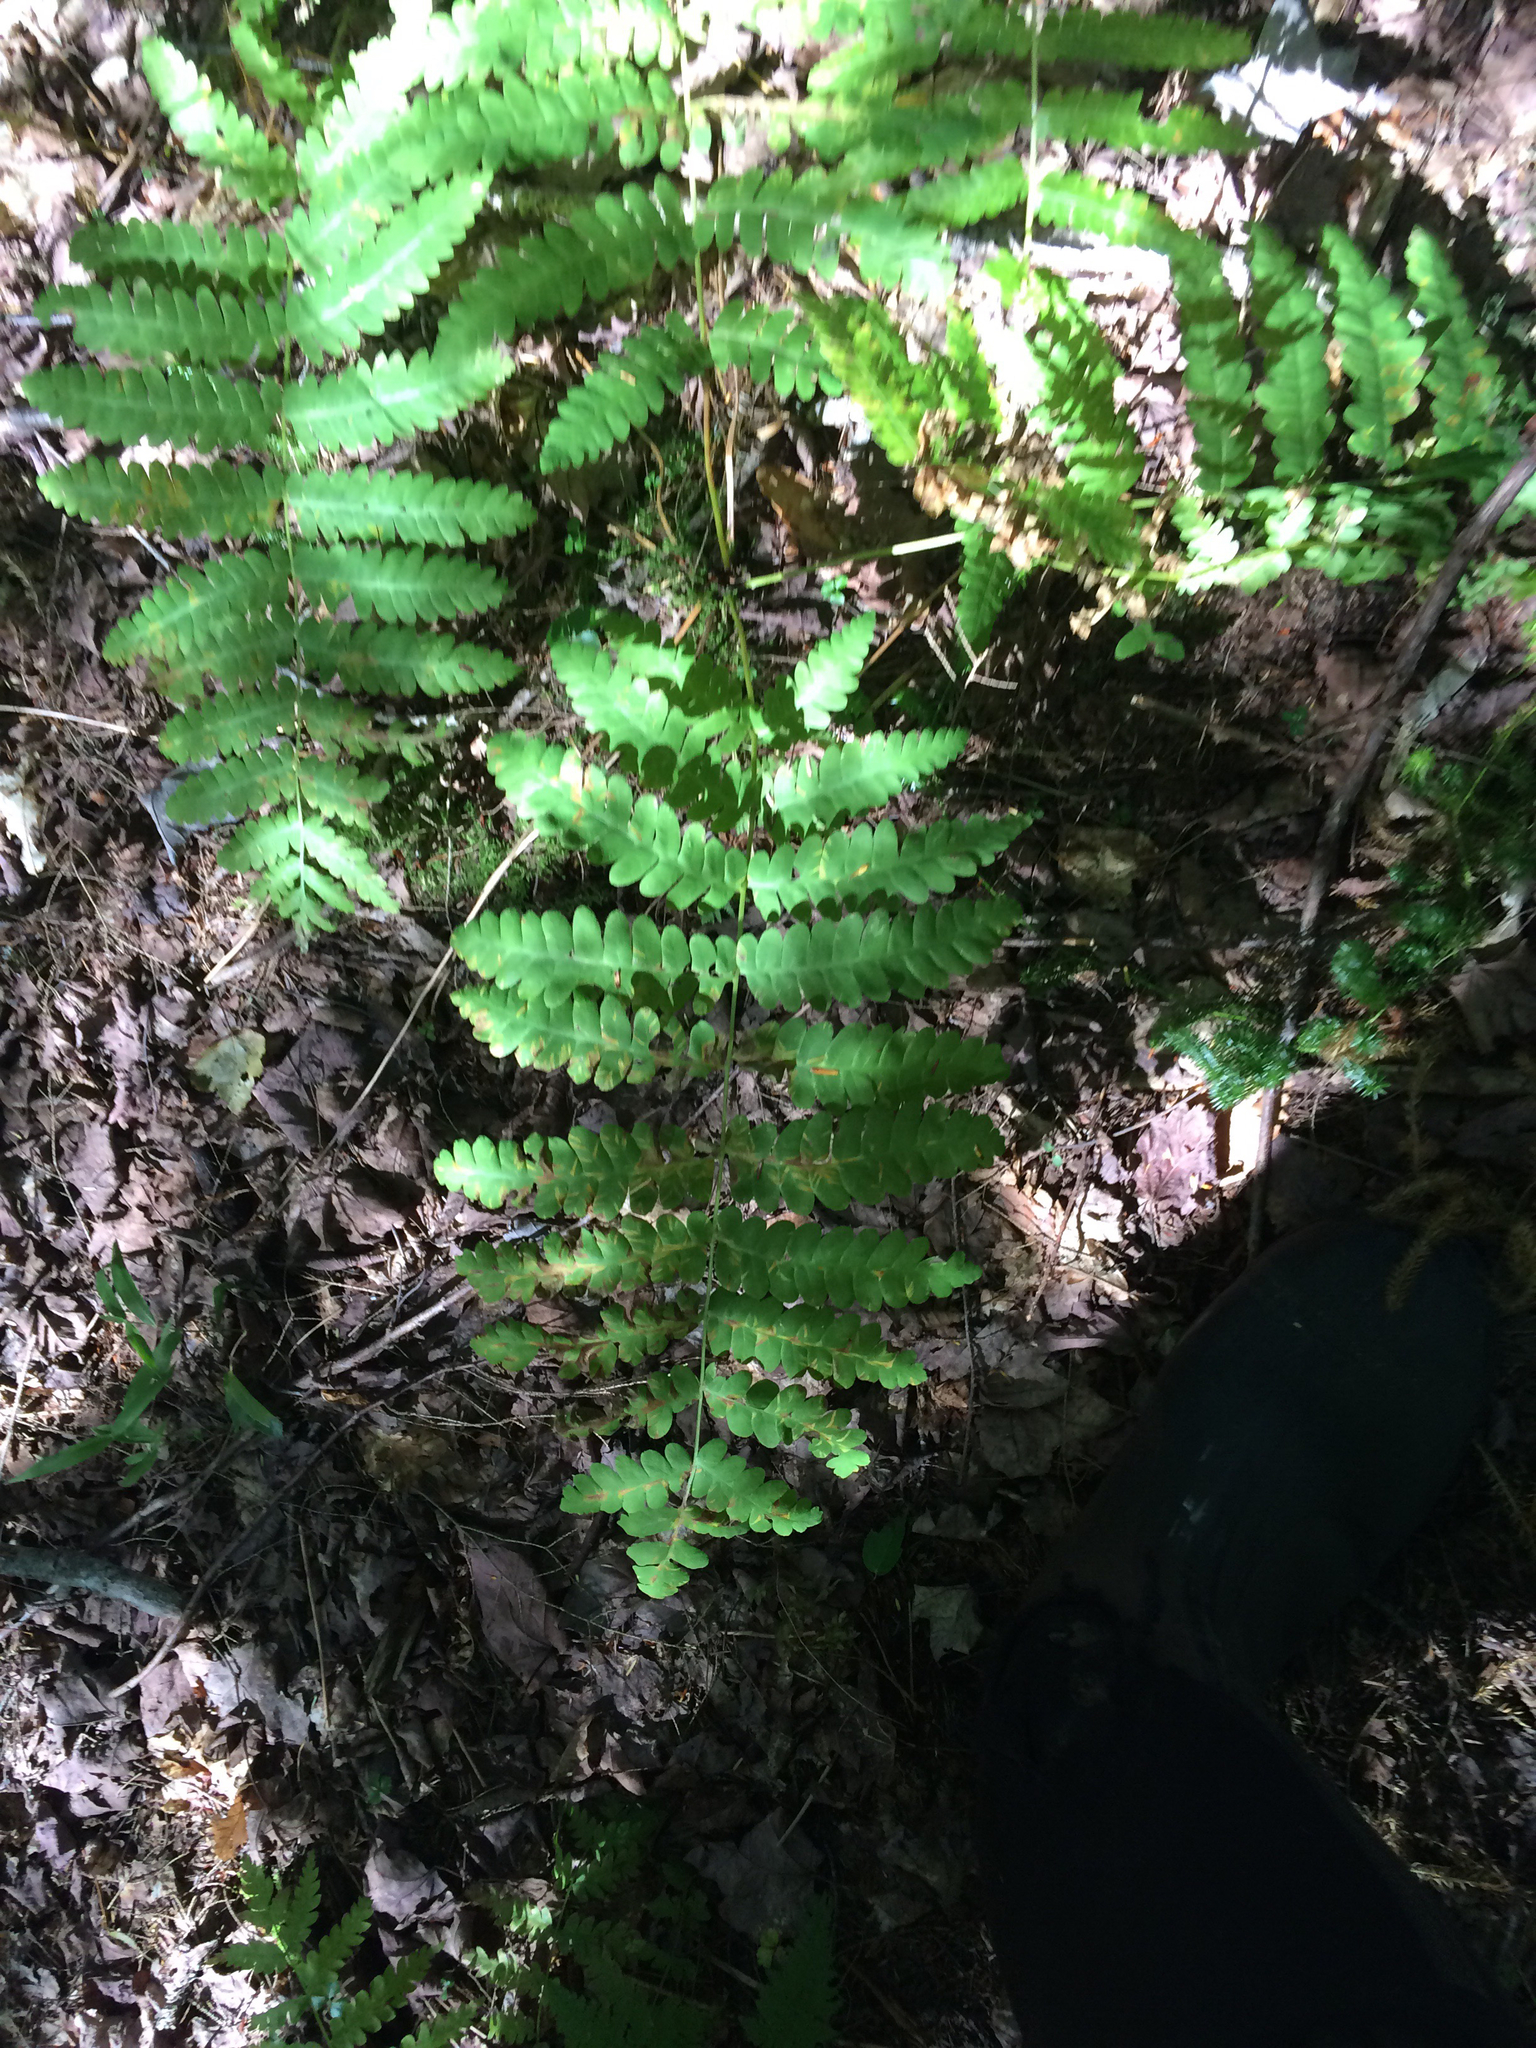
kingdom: Plantae
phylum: Tracheophyta
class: Polypodiopsida
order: Osmundales
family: Osmundaceae
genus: Claytosmunda
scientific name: Claytosmunda claytoniana
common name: Clayton's fern
